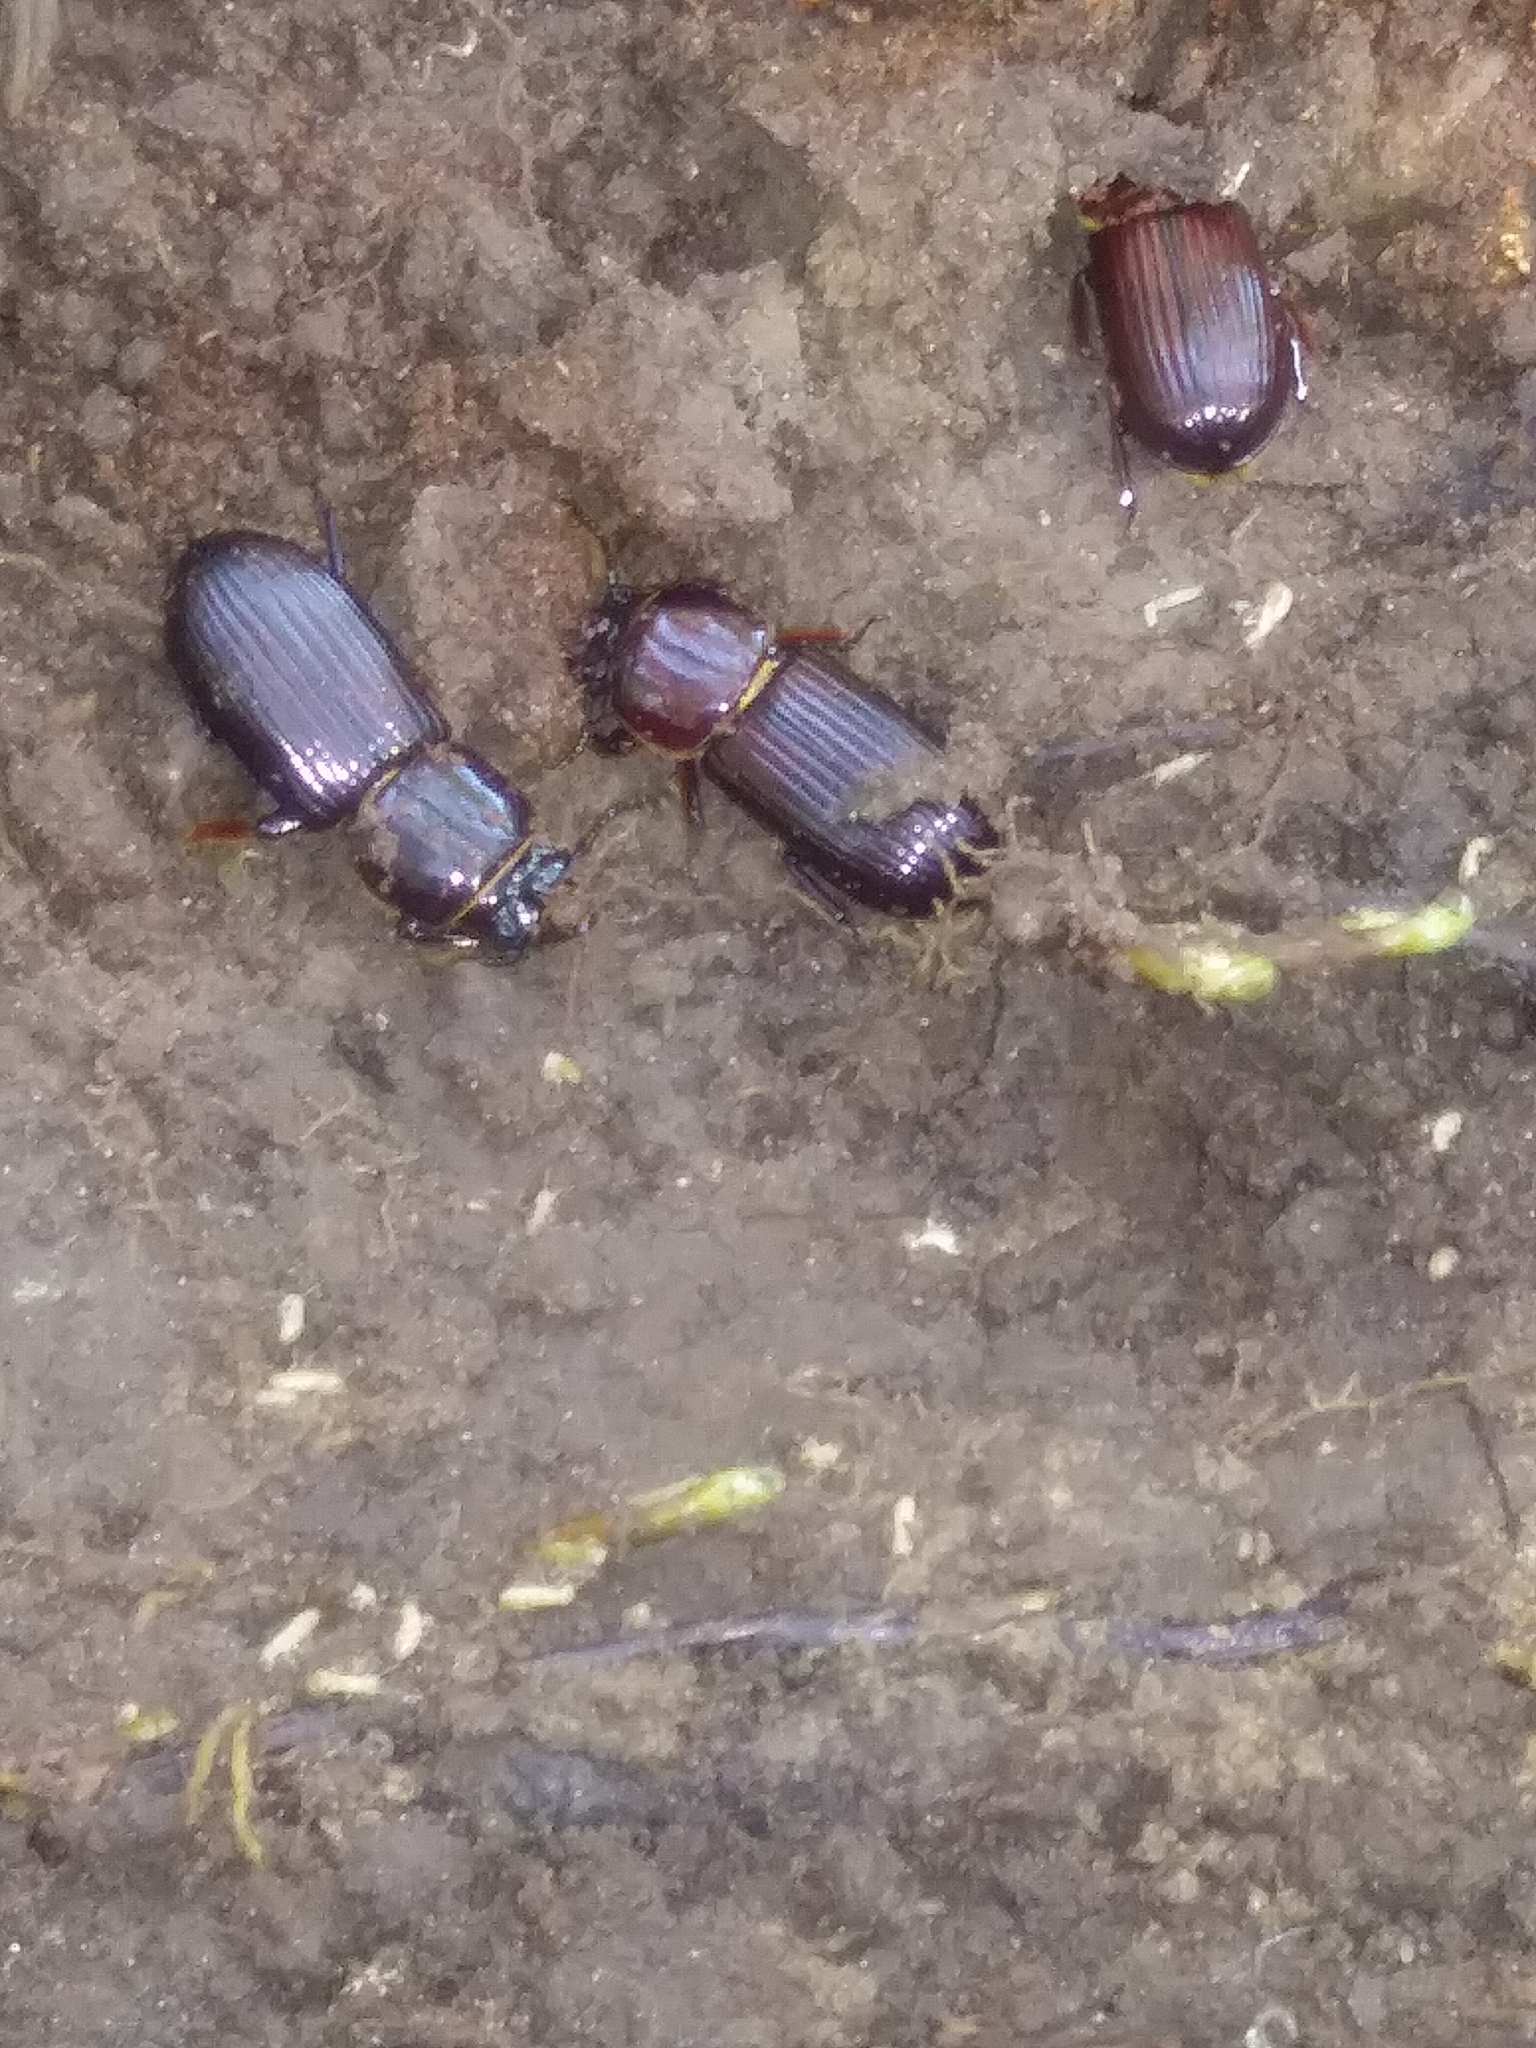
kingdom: Animalia
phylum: Arthropoda
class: Insecta
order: Coleoptera
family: Passalidae
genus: Odontotaenius
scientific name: Odontotaenius disjunctus
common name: Patent leather beetle
